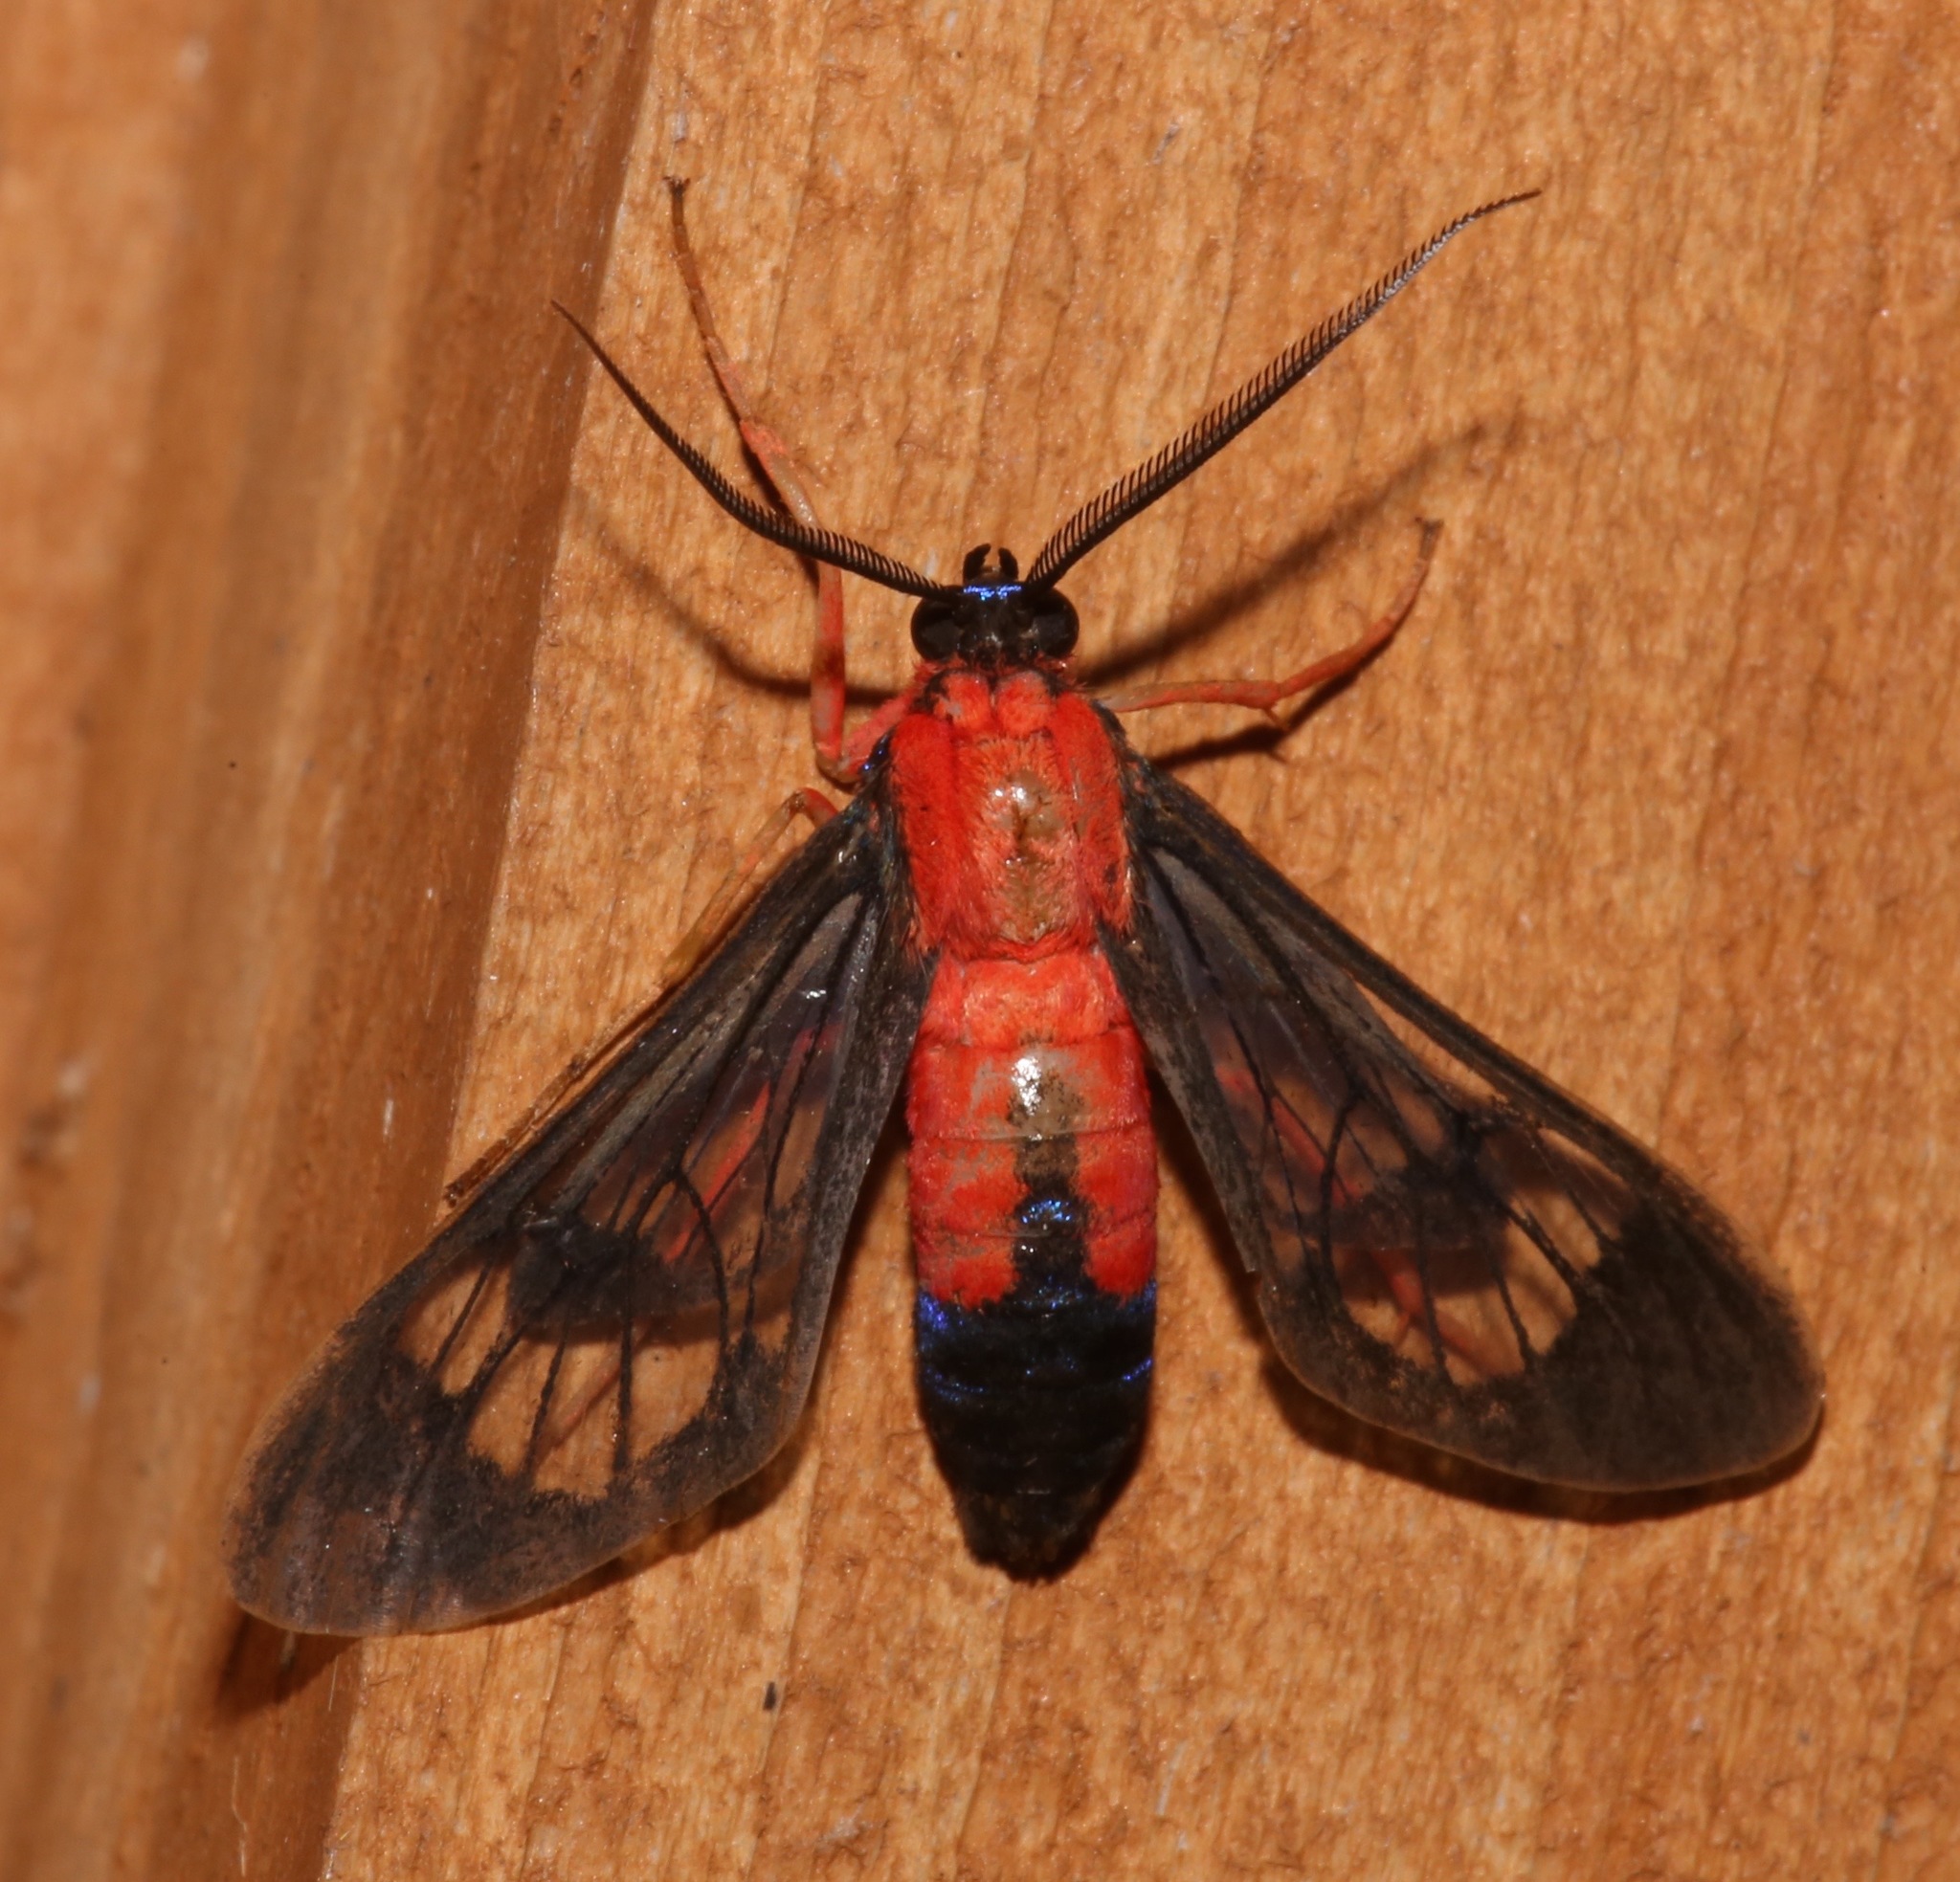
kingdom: Animalia
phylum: Arthropoda
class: Insecta
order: Lepidoptera
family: Erebidae
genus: Cosmosoma
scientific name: Cosmosoma myrodora
